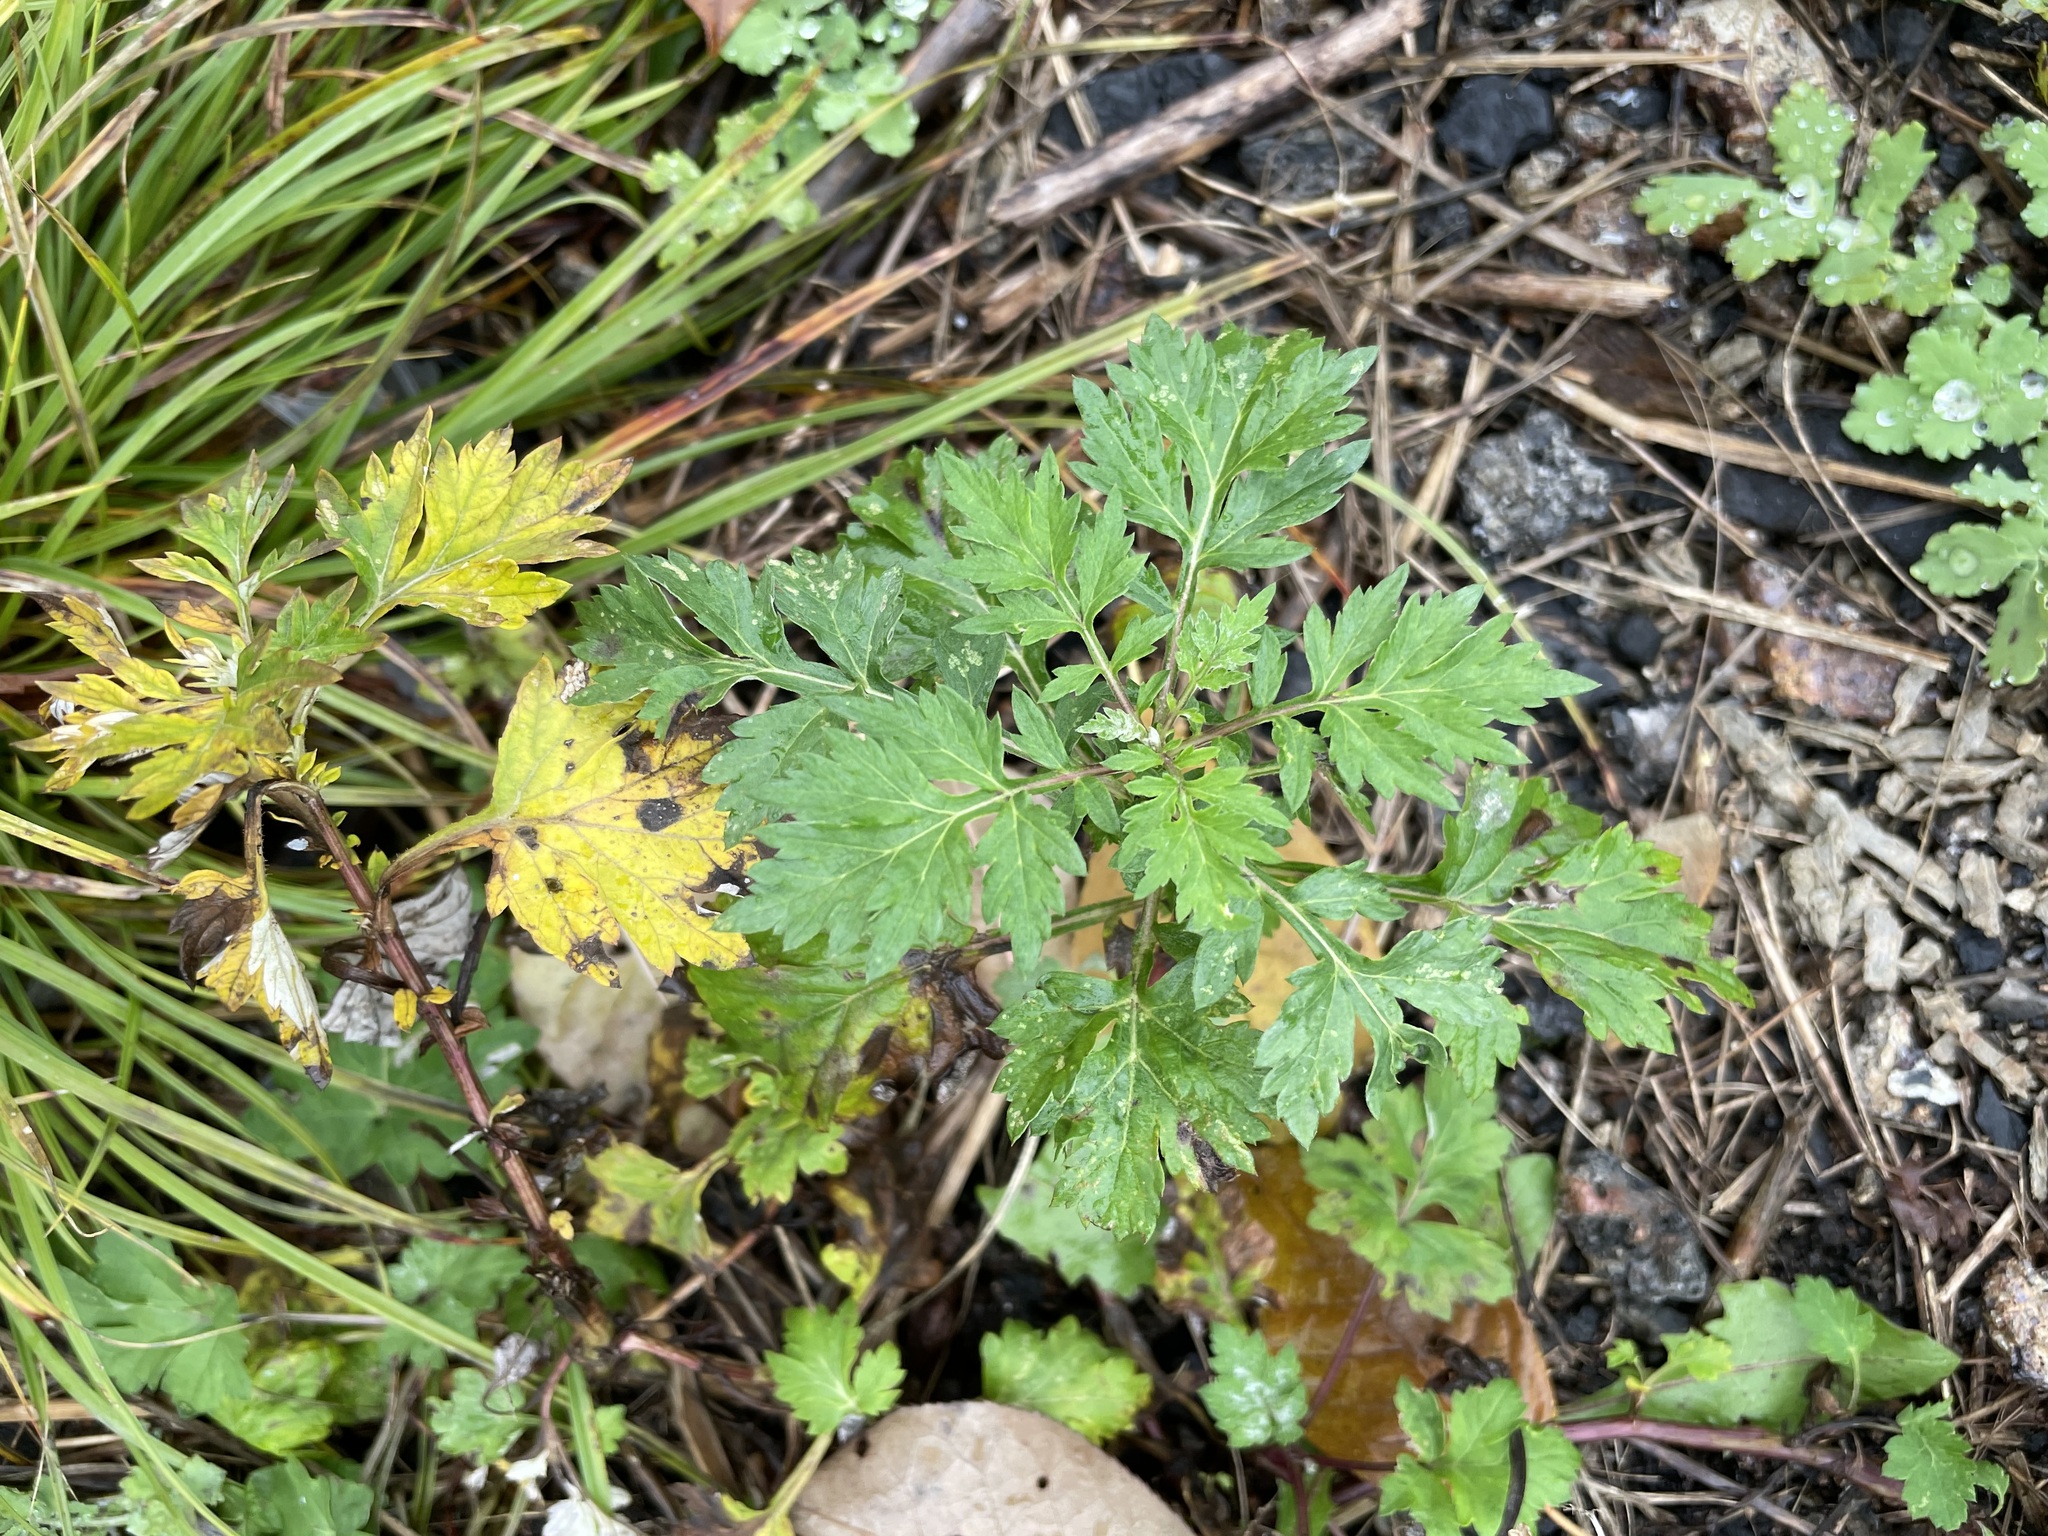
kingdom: Plantae
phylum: Tracheophyta
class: Magnoliopsida
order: Asterales
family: Asteraceae
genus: Artemisia
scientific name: Artemisia vulgaris
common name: Mugwort
